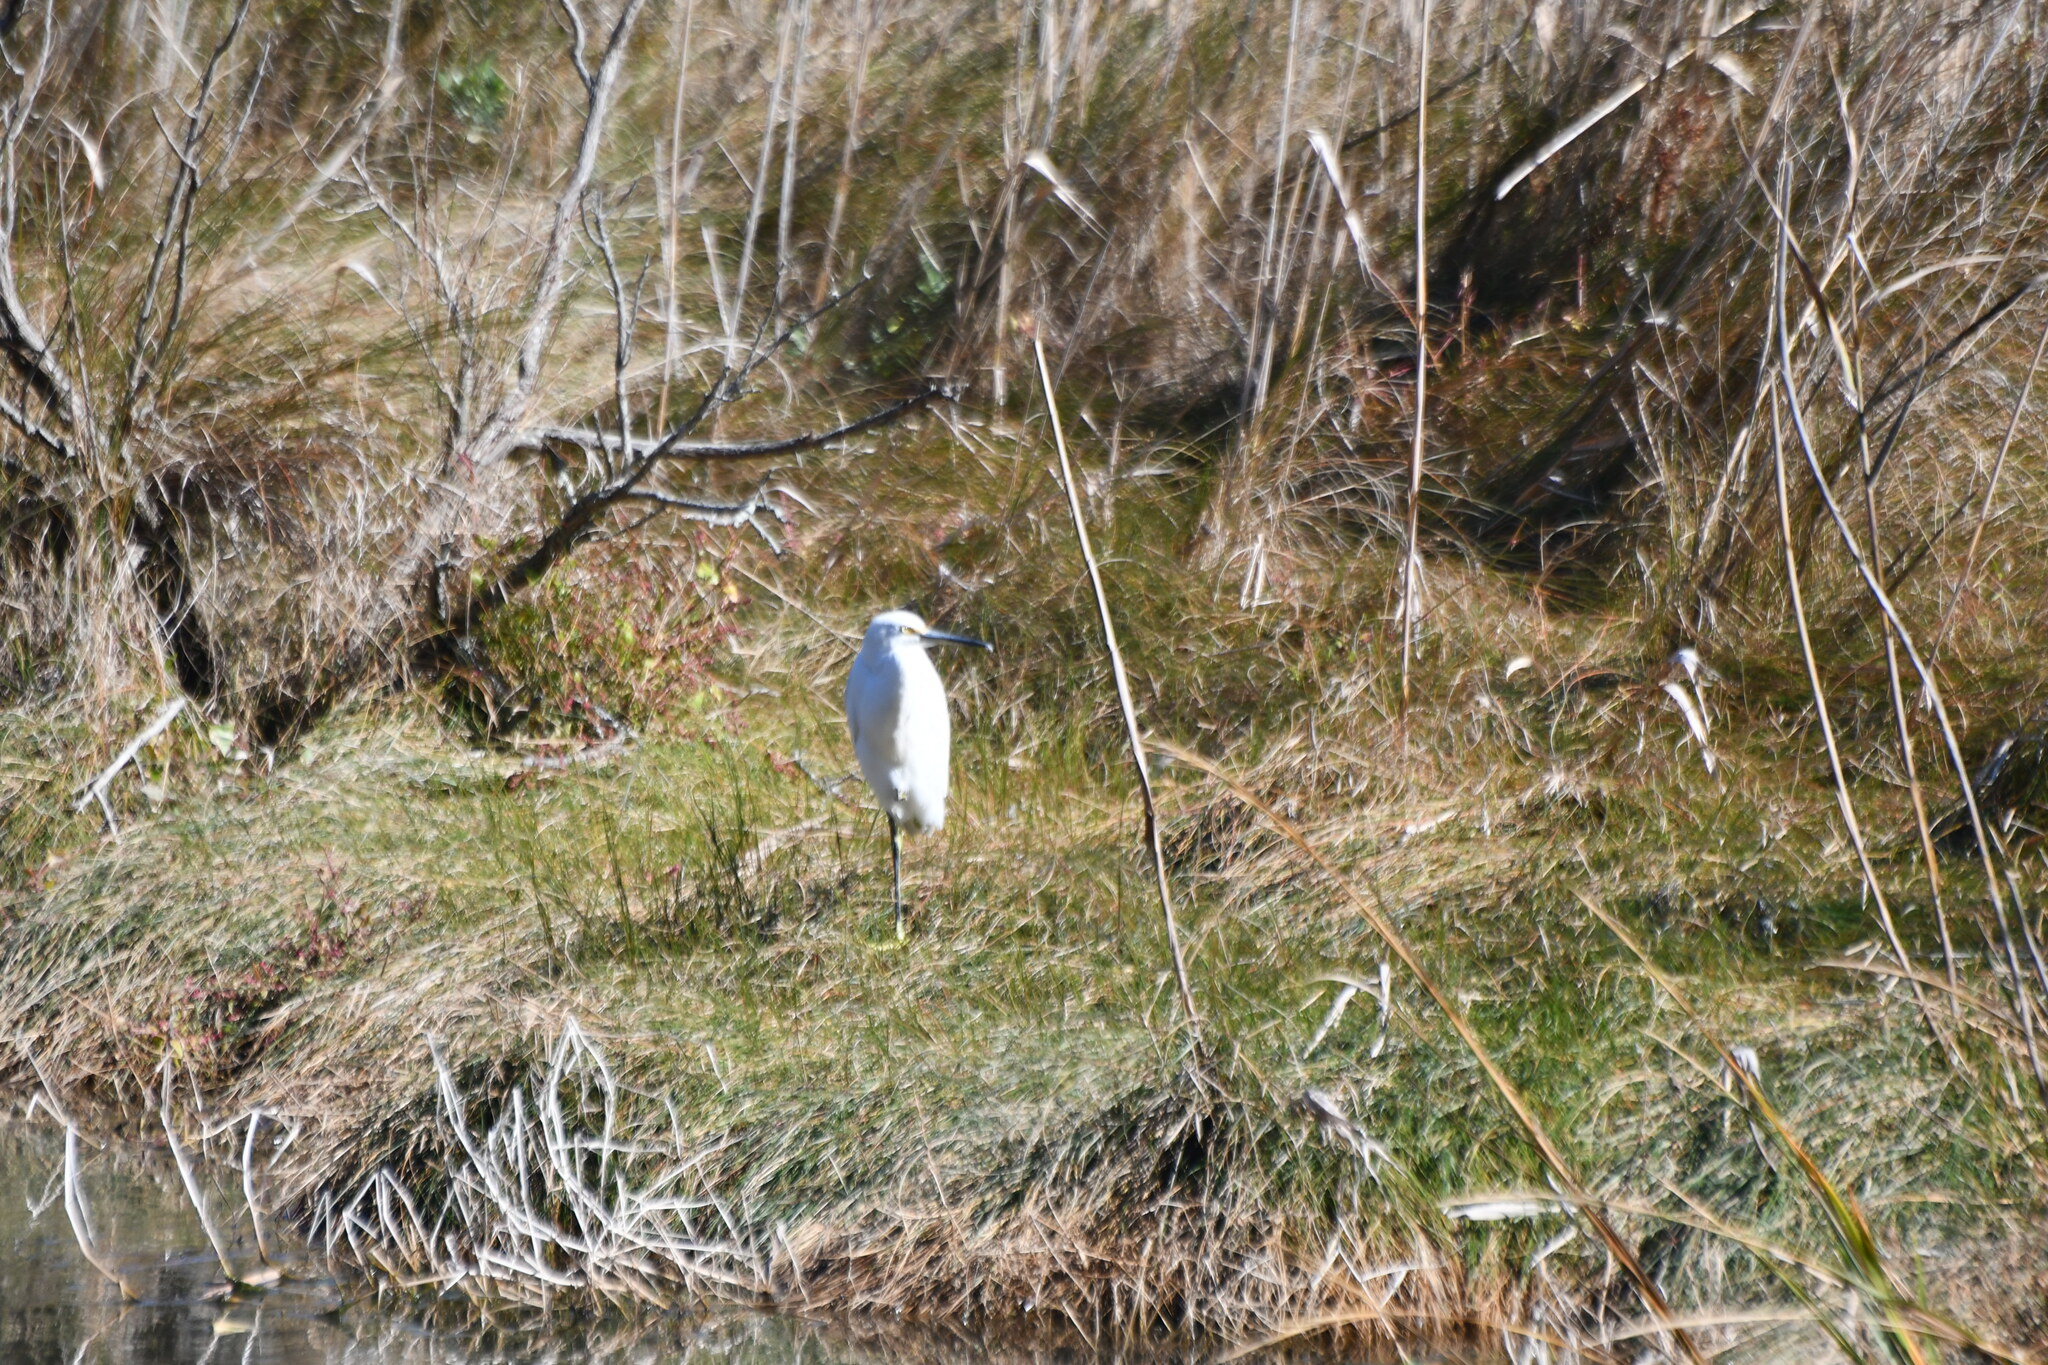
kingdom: Animalia
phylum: Chordata
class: Aves
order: Pelecaniformes
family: Ardeidae
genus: Egretta
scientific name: Egretta thula
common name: Snowy egret
